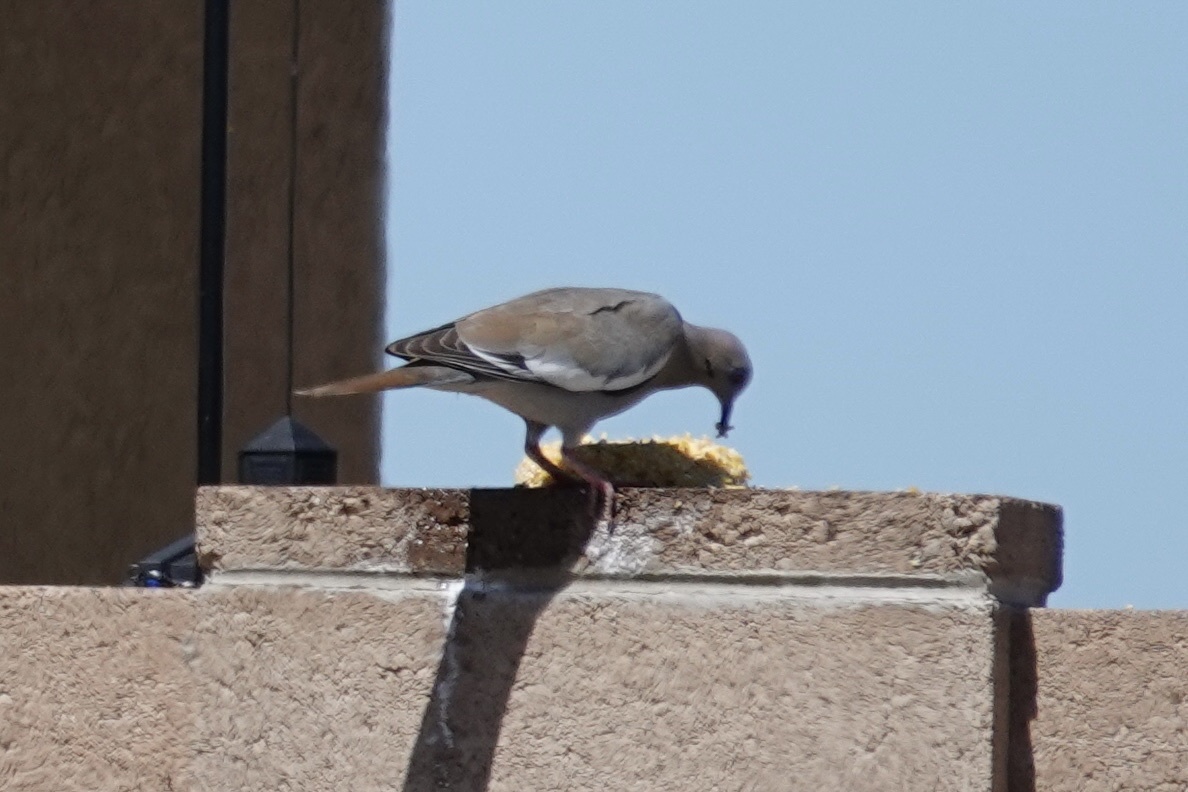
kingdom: Animalia
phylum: Chordata
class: Aves
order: Columbiformes
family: Columbidae
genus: Zenaida
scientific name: Zenaida asiatica
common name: White-winged dove
